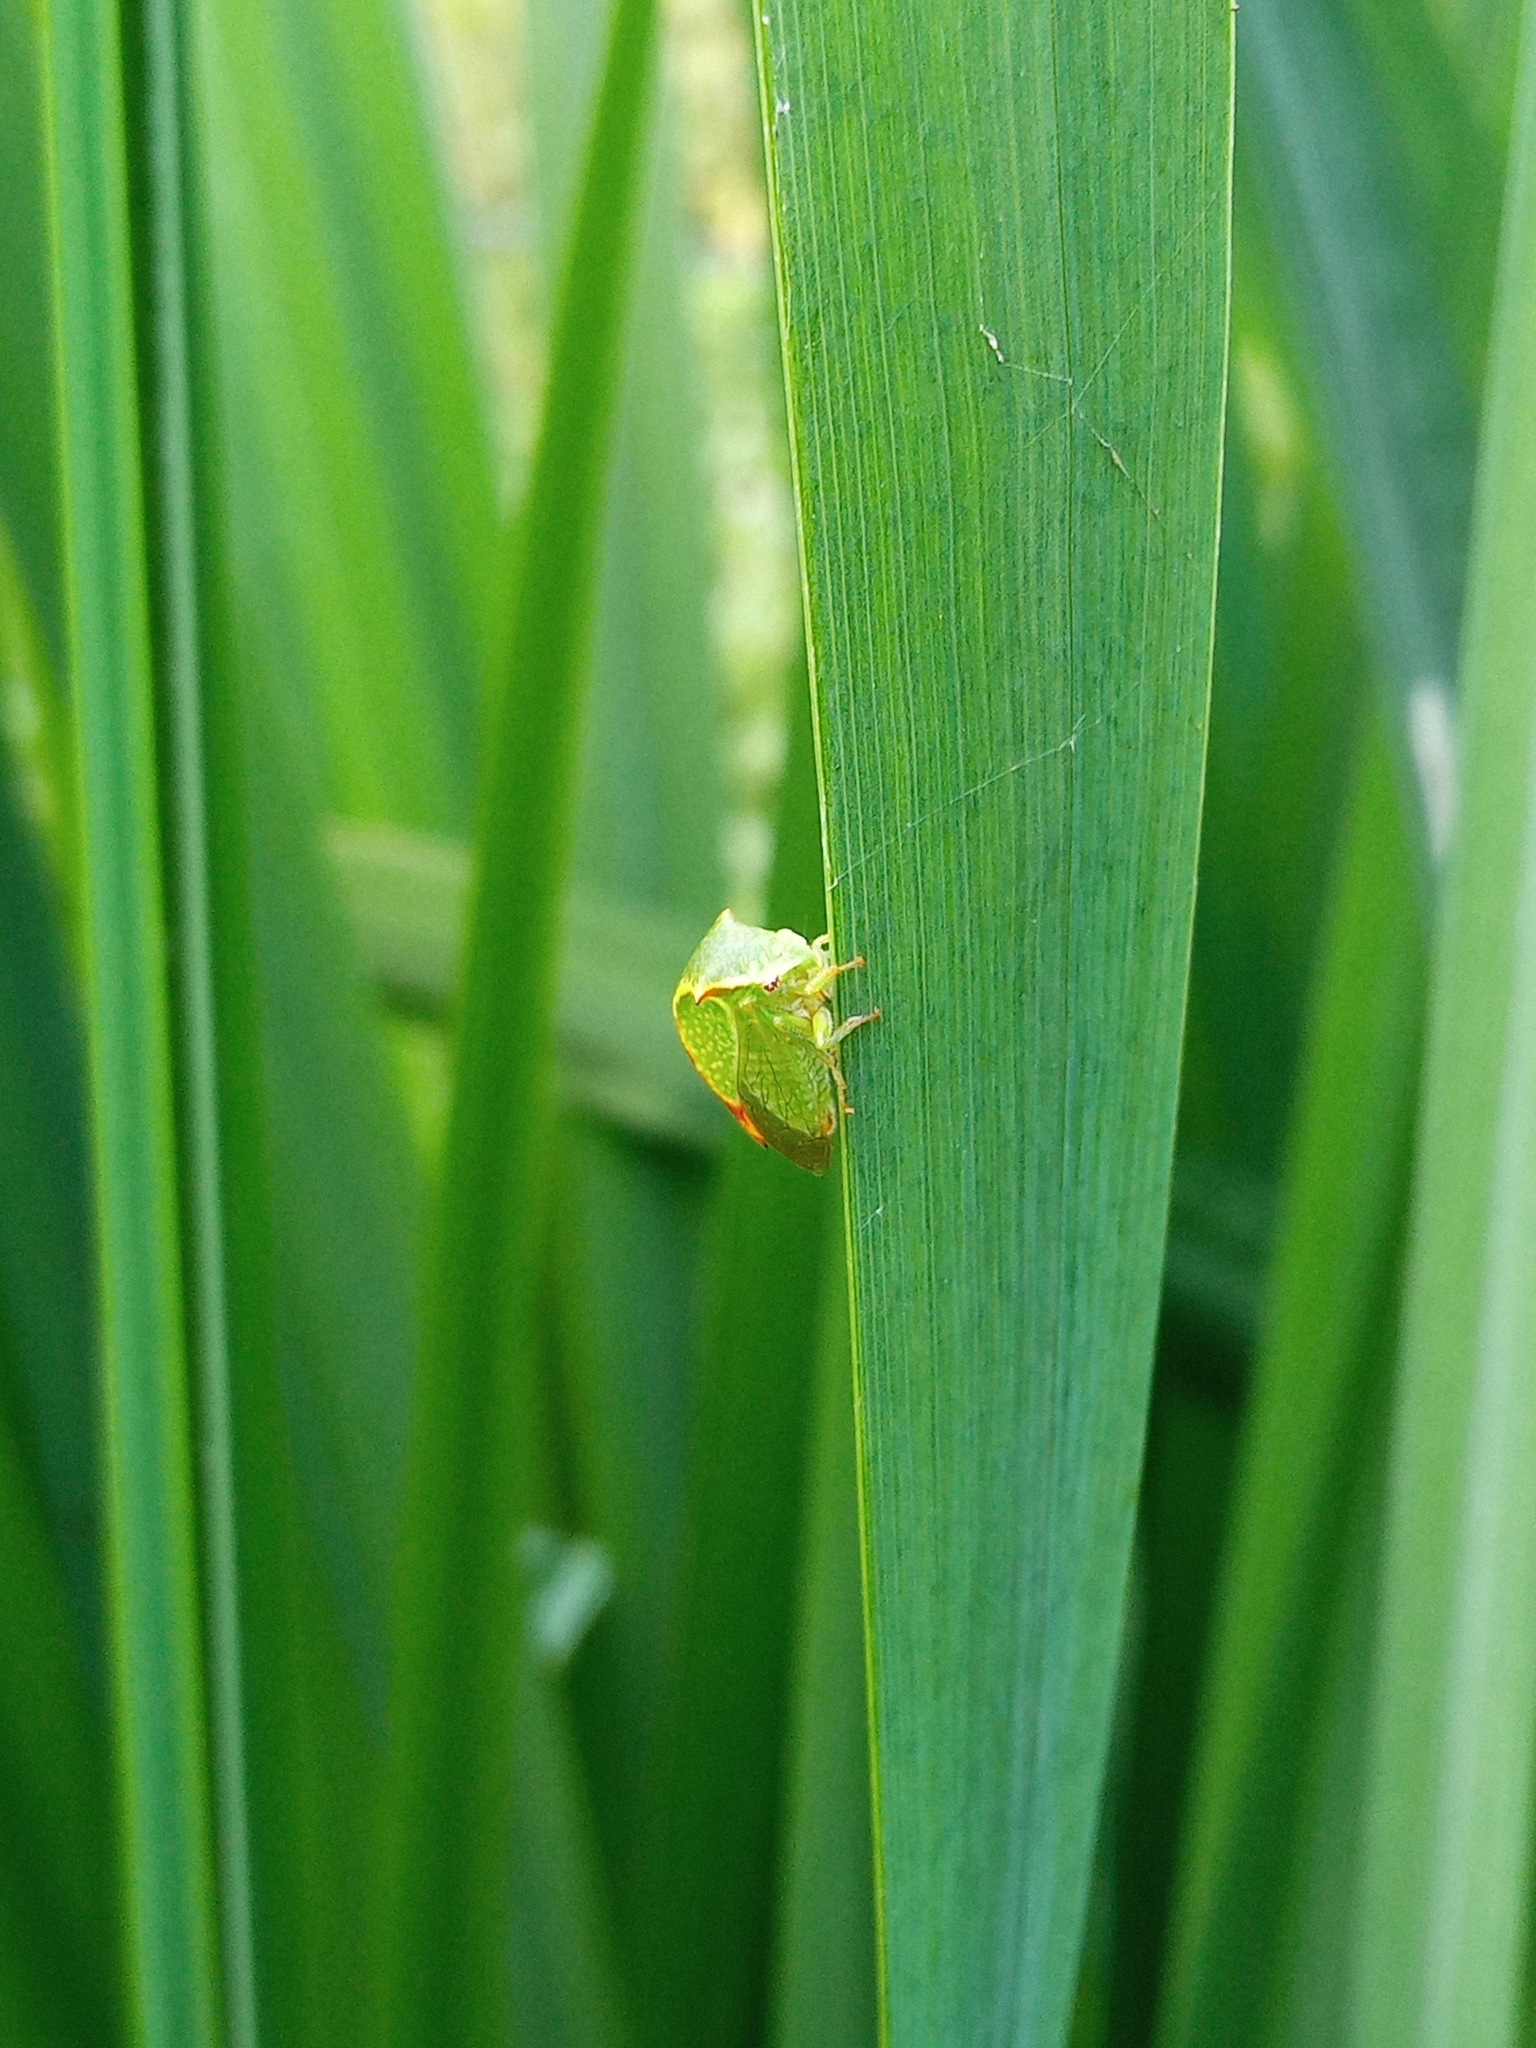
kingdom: Animalia
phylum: Arthropoda
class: Insecta
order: Hemiptera
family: Membracidae
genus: Stictocephala
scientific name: Stictocephala bisonia
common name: American buffalo treehopper
